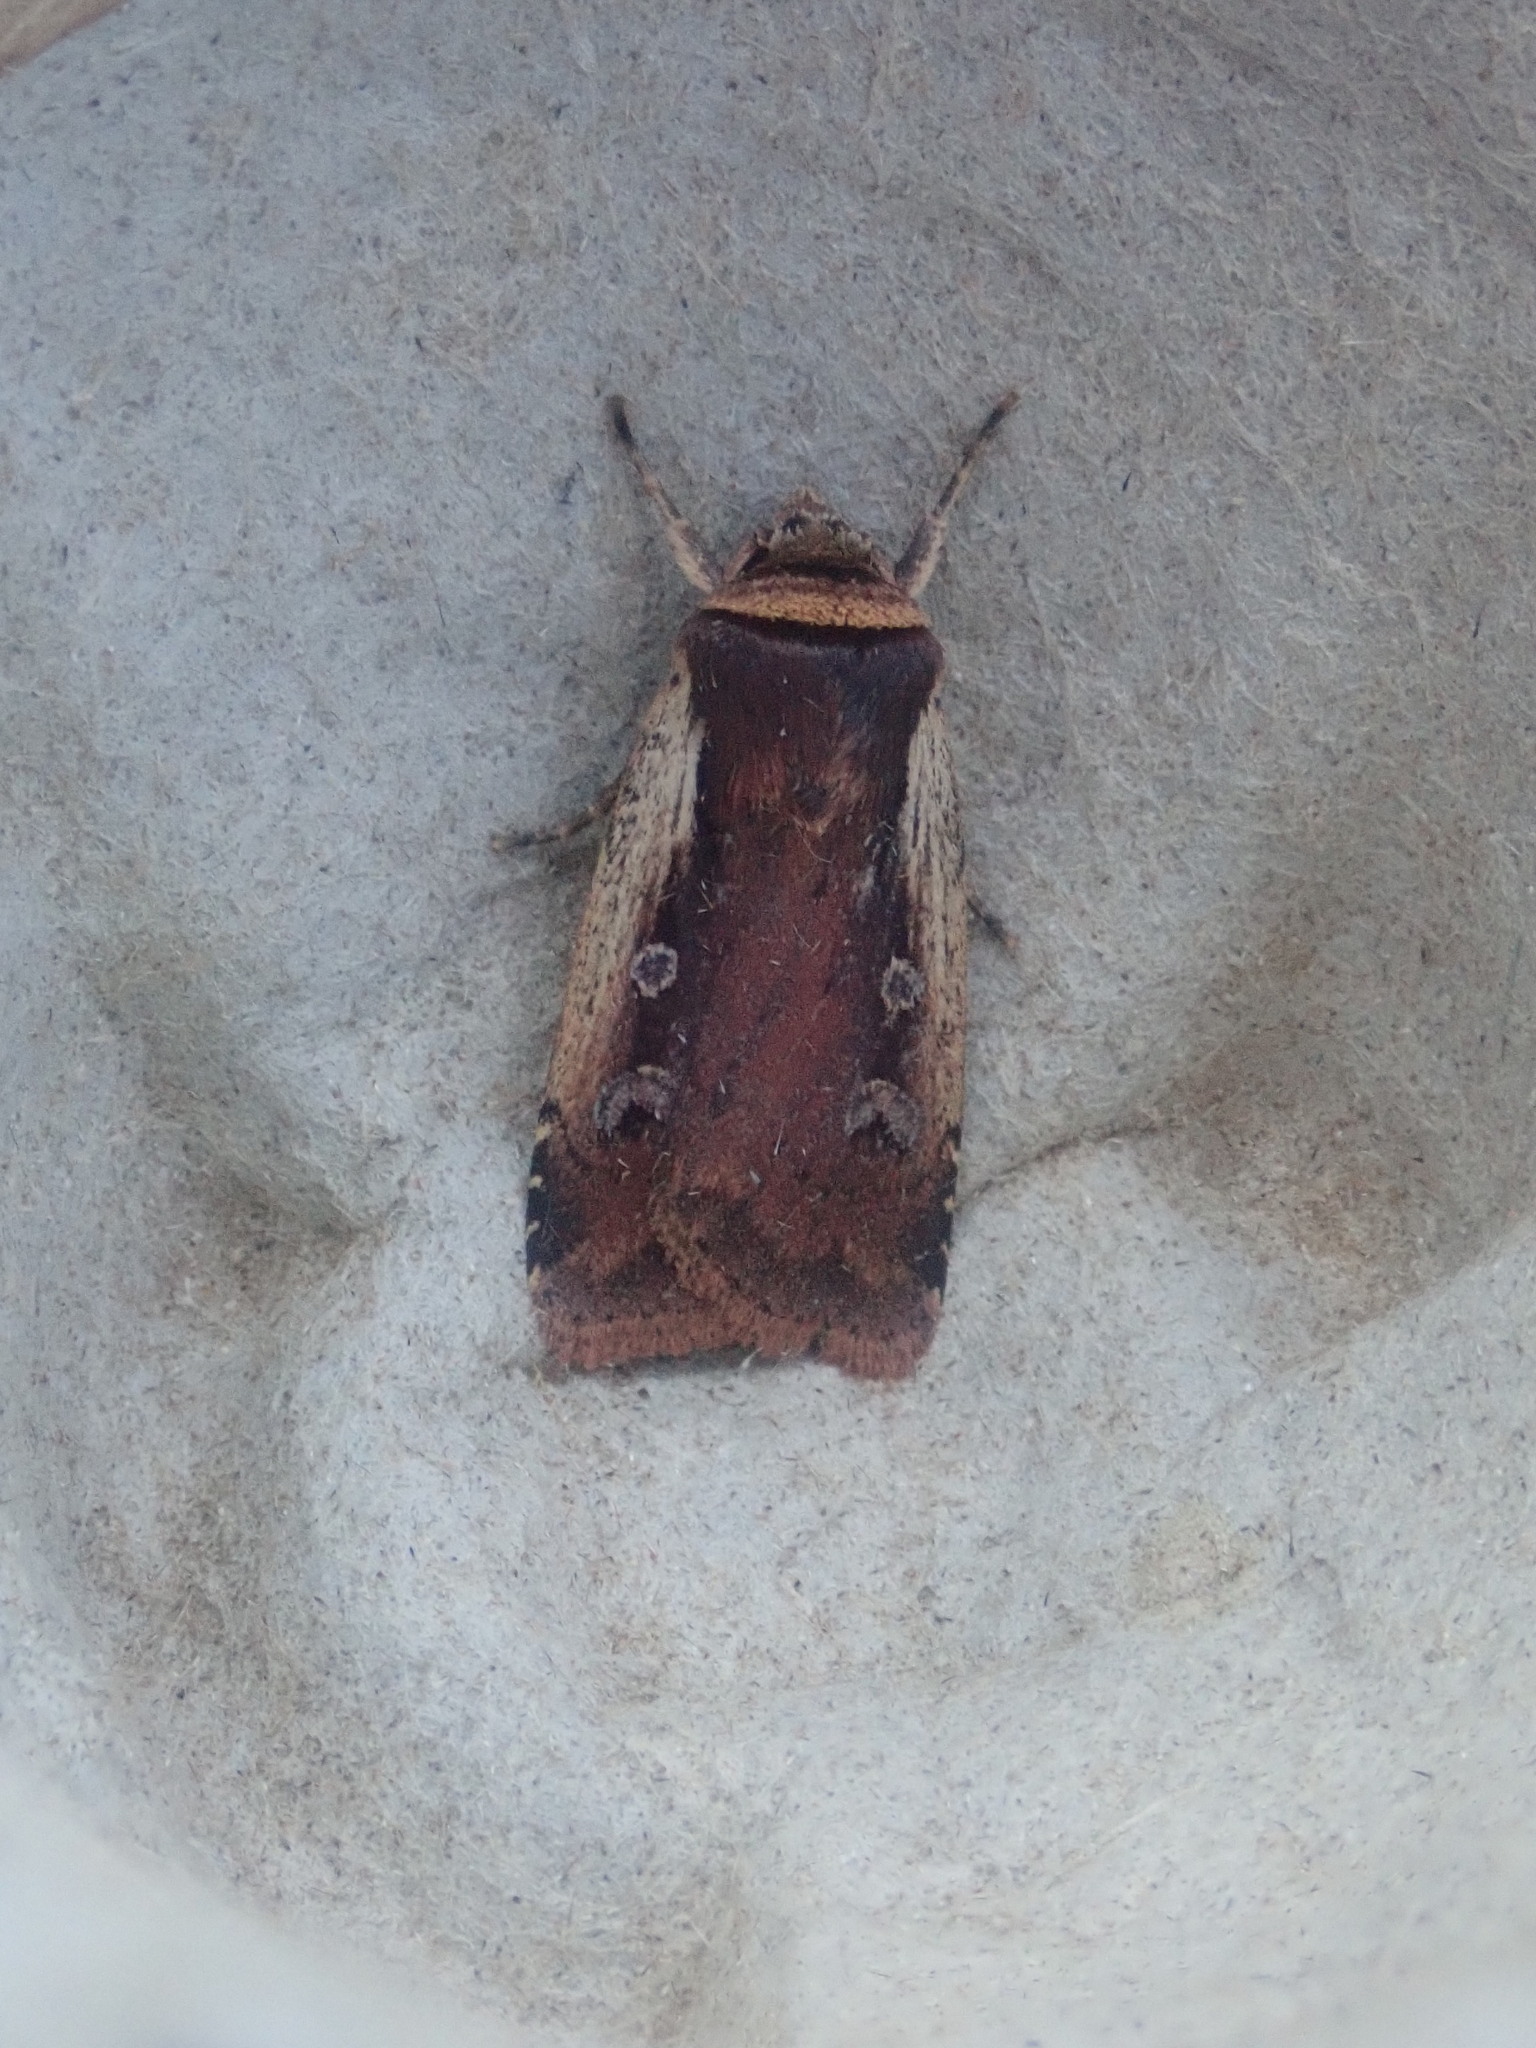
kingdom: Animalia
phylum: Arthropoda
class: Insecta
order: Lepidoptera
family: Noctuidae
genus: Ochropleura
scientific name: Ochropleura implecta
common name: Flame-shouldered dart
